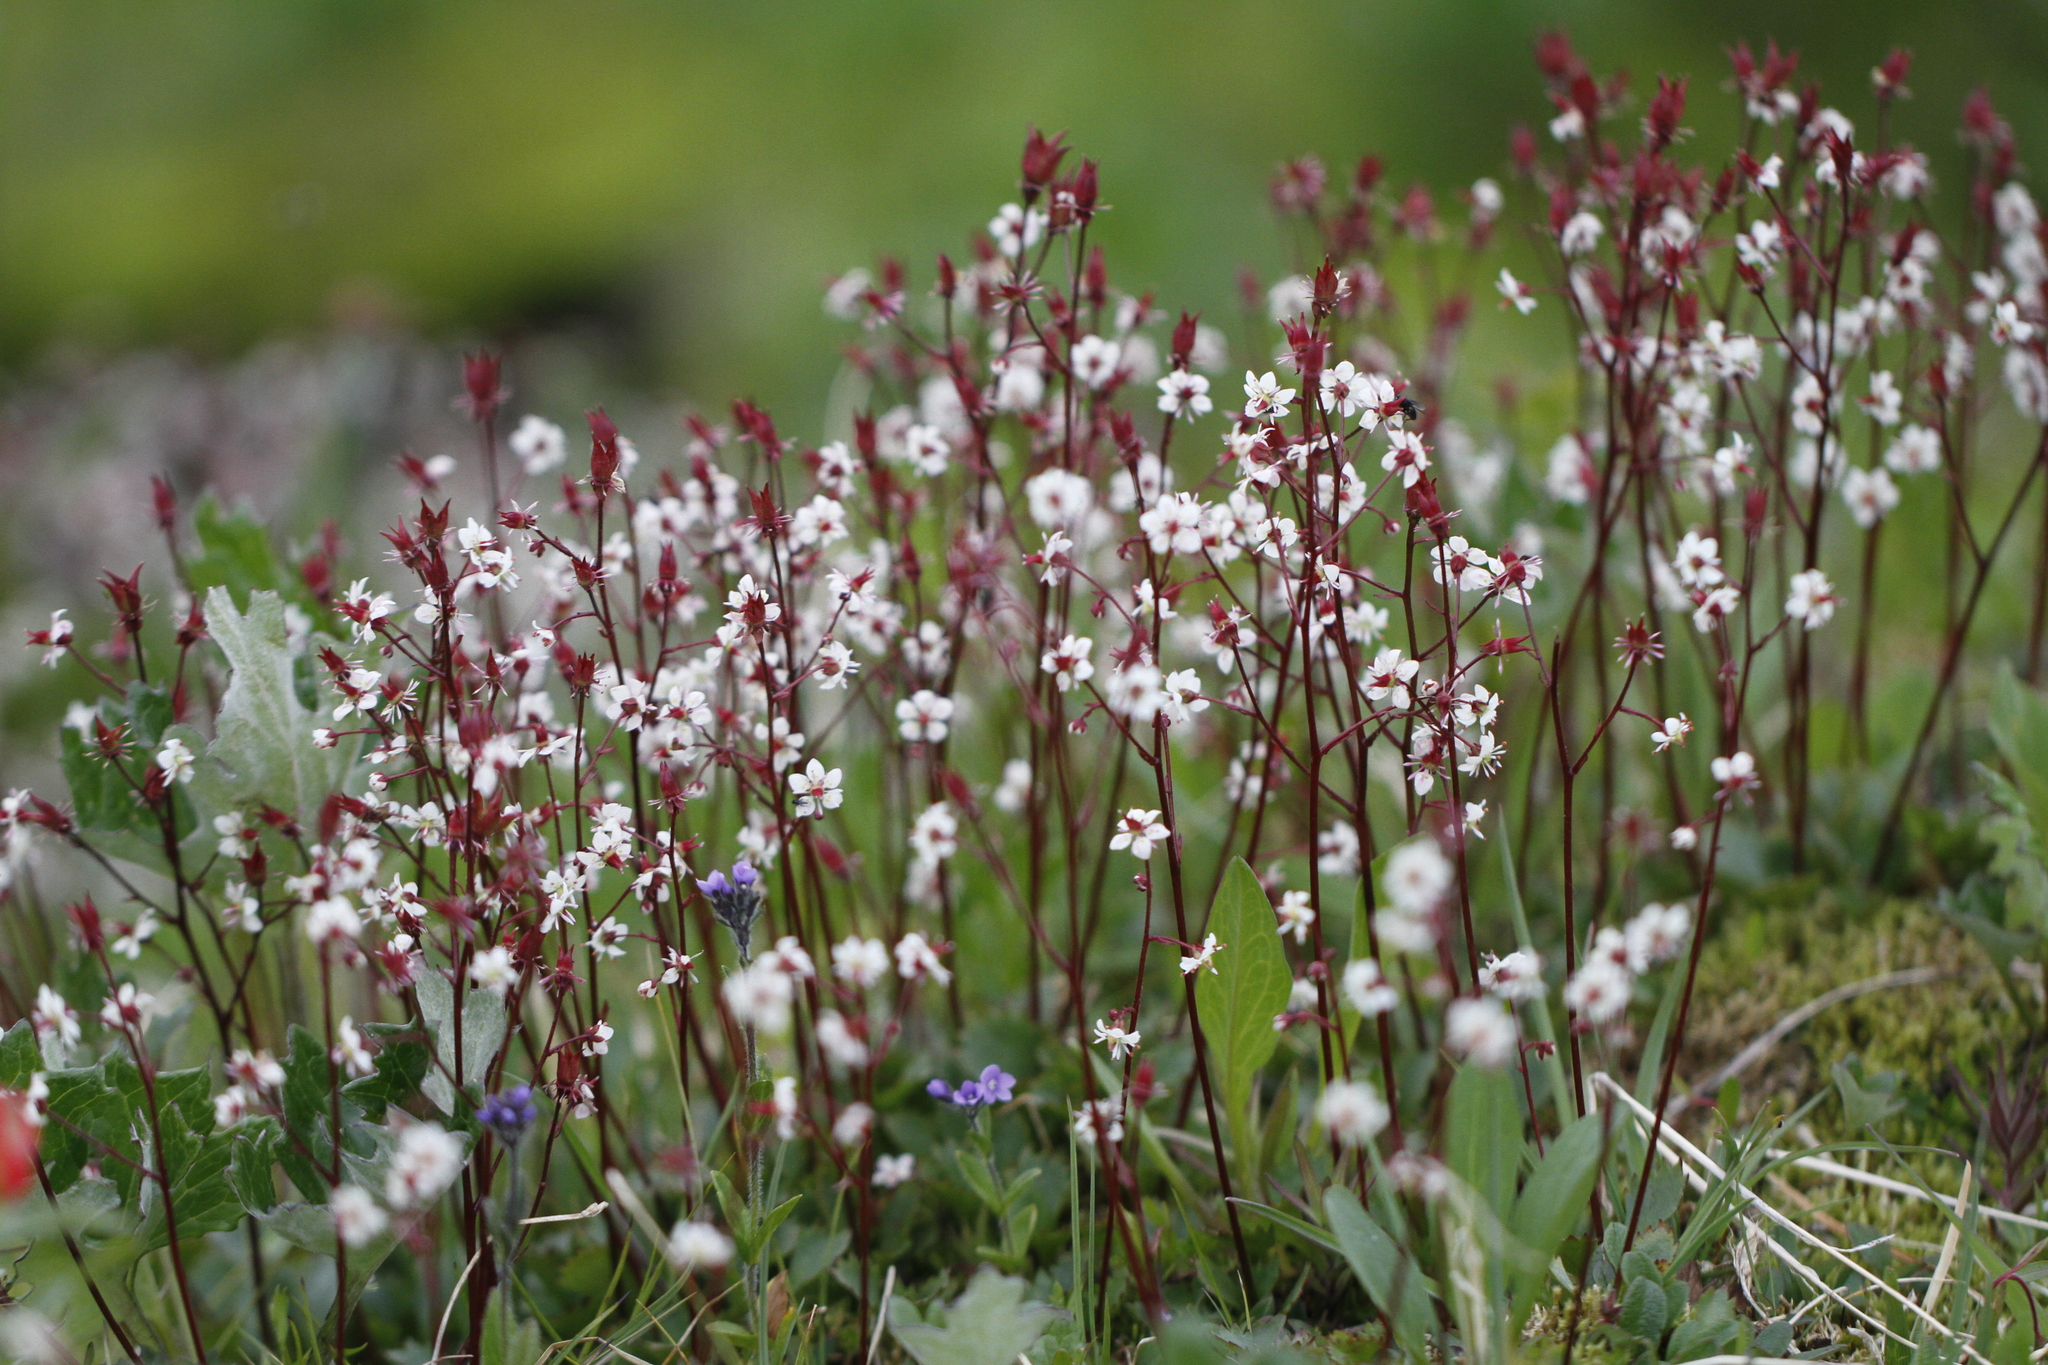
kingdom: Plantae
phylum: Tracheophyta
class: Magnoliopsida
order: Saxifragales
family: Saxifragaceae
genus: Micranthes
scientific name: Micranthes lyallii
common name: Lyall's saxifrage
